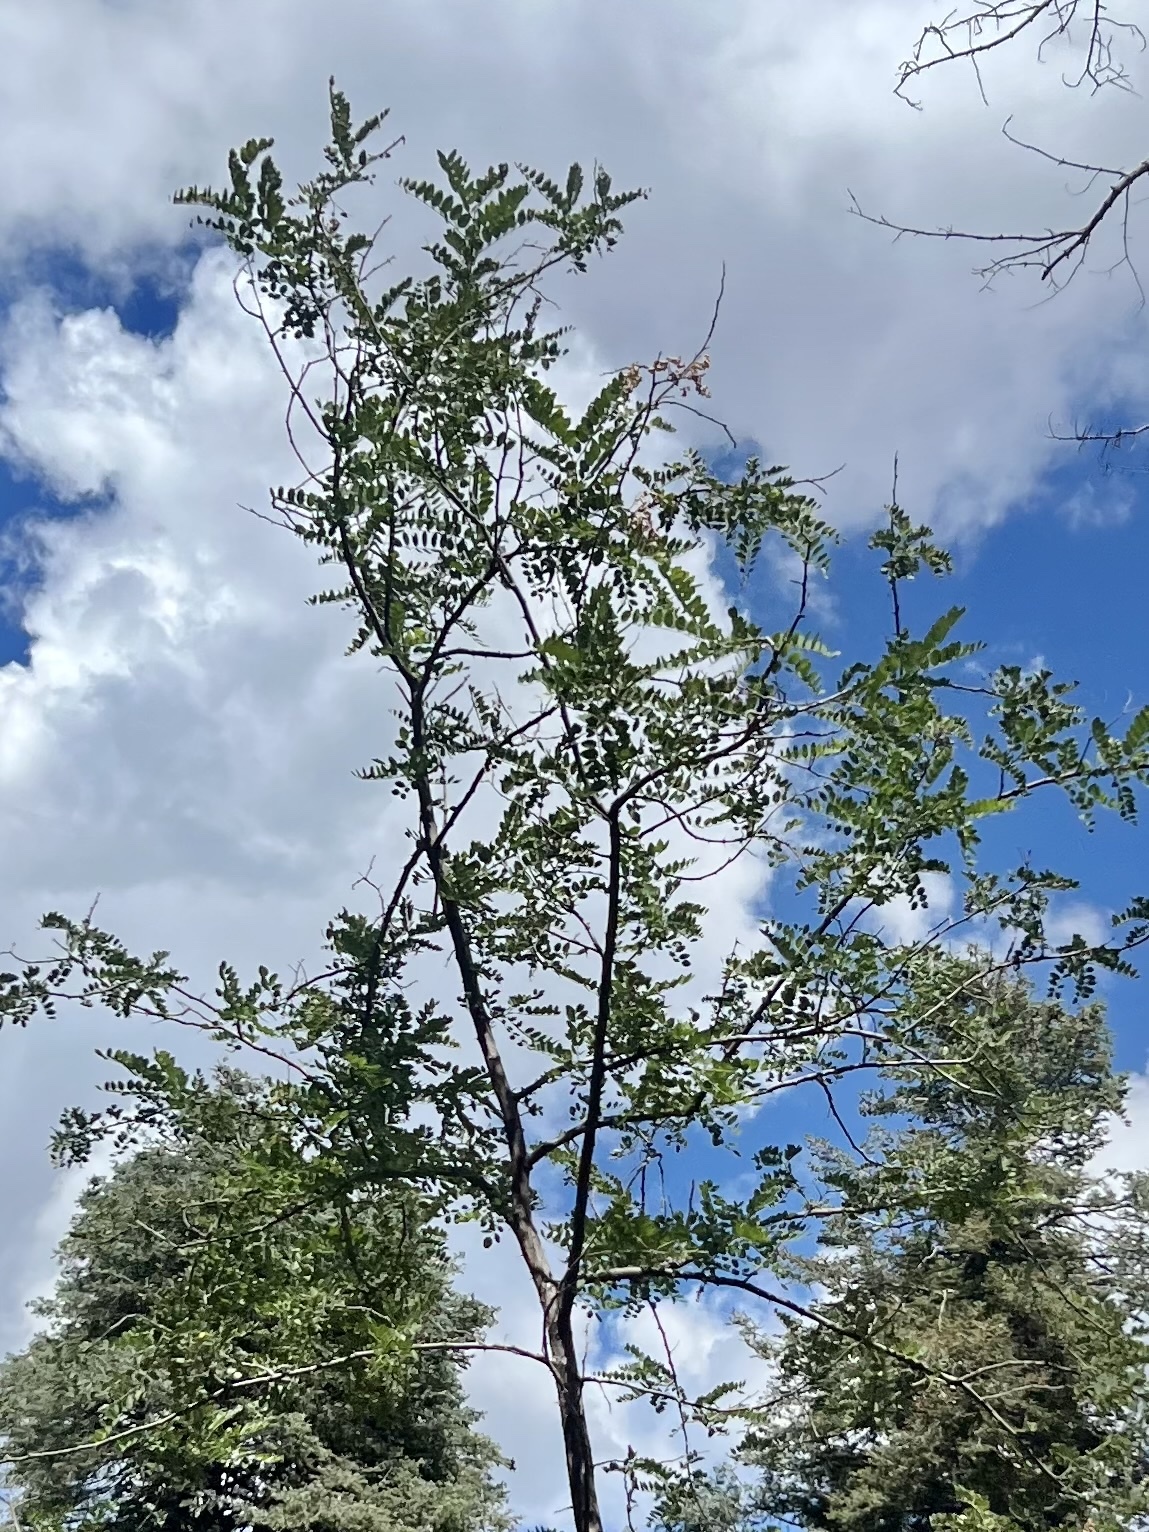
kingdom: Plantae
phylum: Tracheophyta
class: Magnoliopsida
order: Fabales
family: Fabaceae
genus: Robinia
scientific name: Robinia neomexicana
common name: New mexico locust
